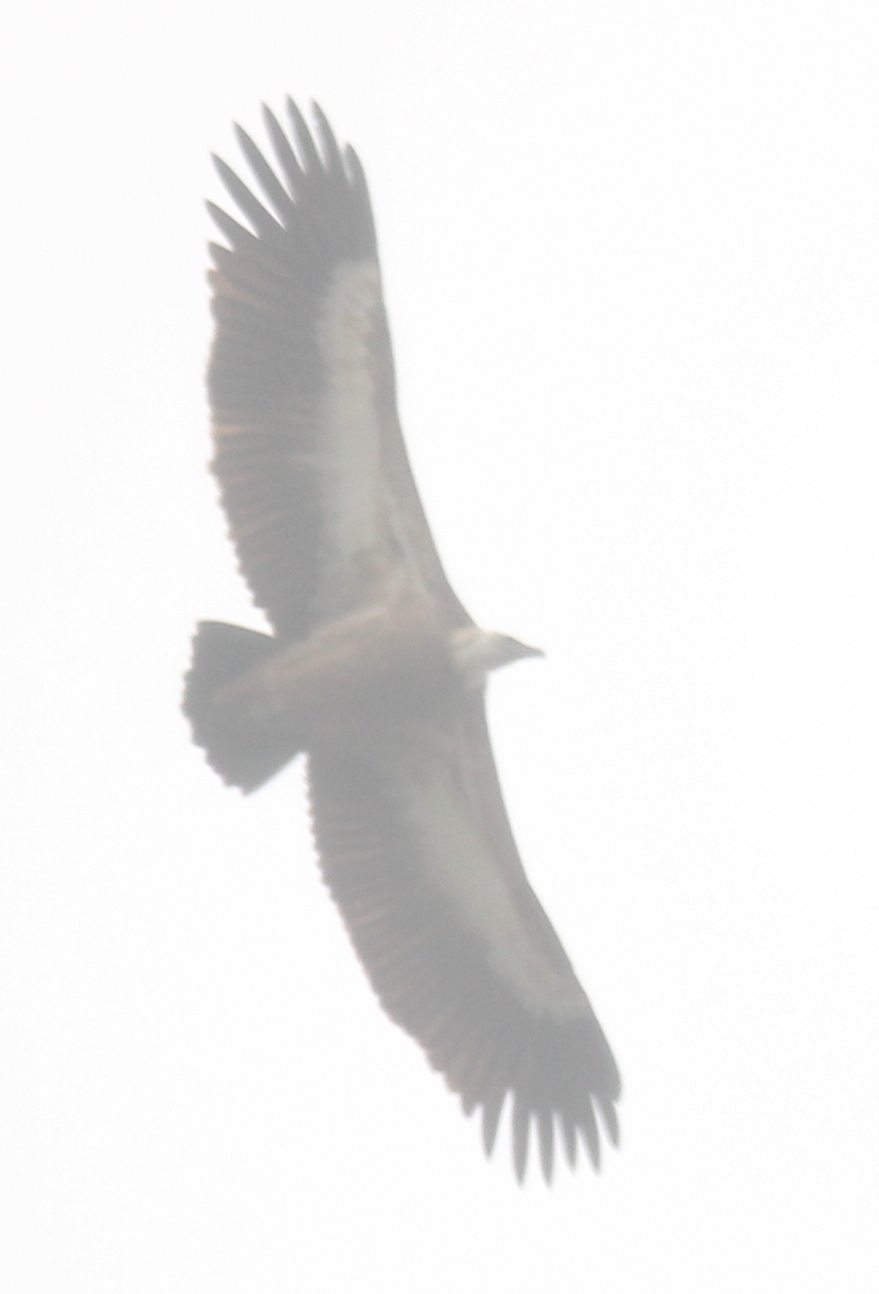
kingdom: Animalia
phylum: Chordata
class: Aves
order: Accipitriformes
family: Accipitridae
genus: Gyps
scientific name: Gyps fulvus
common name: Griffon vulture
